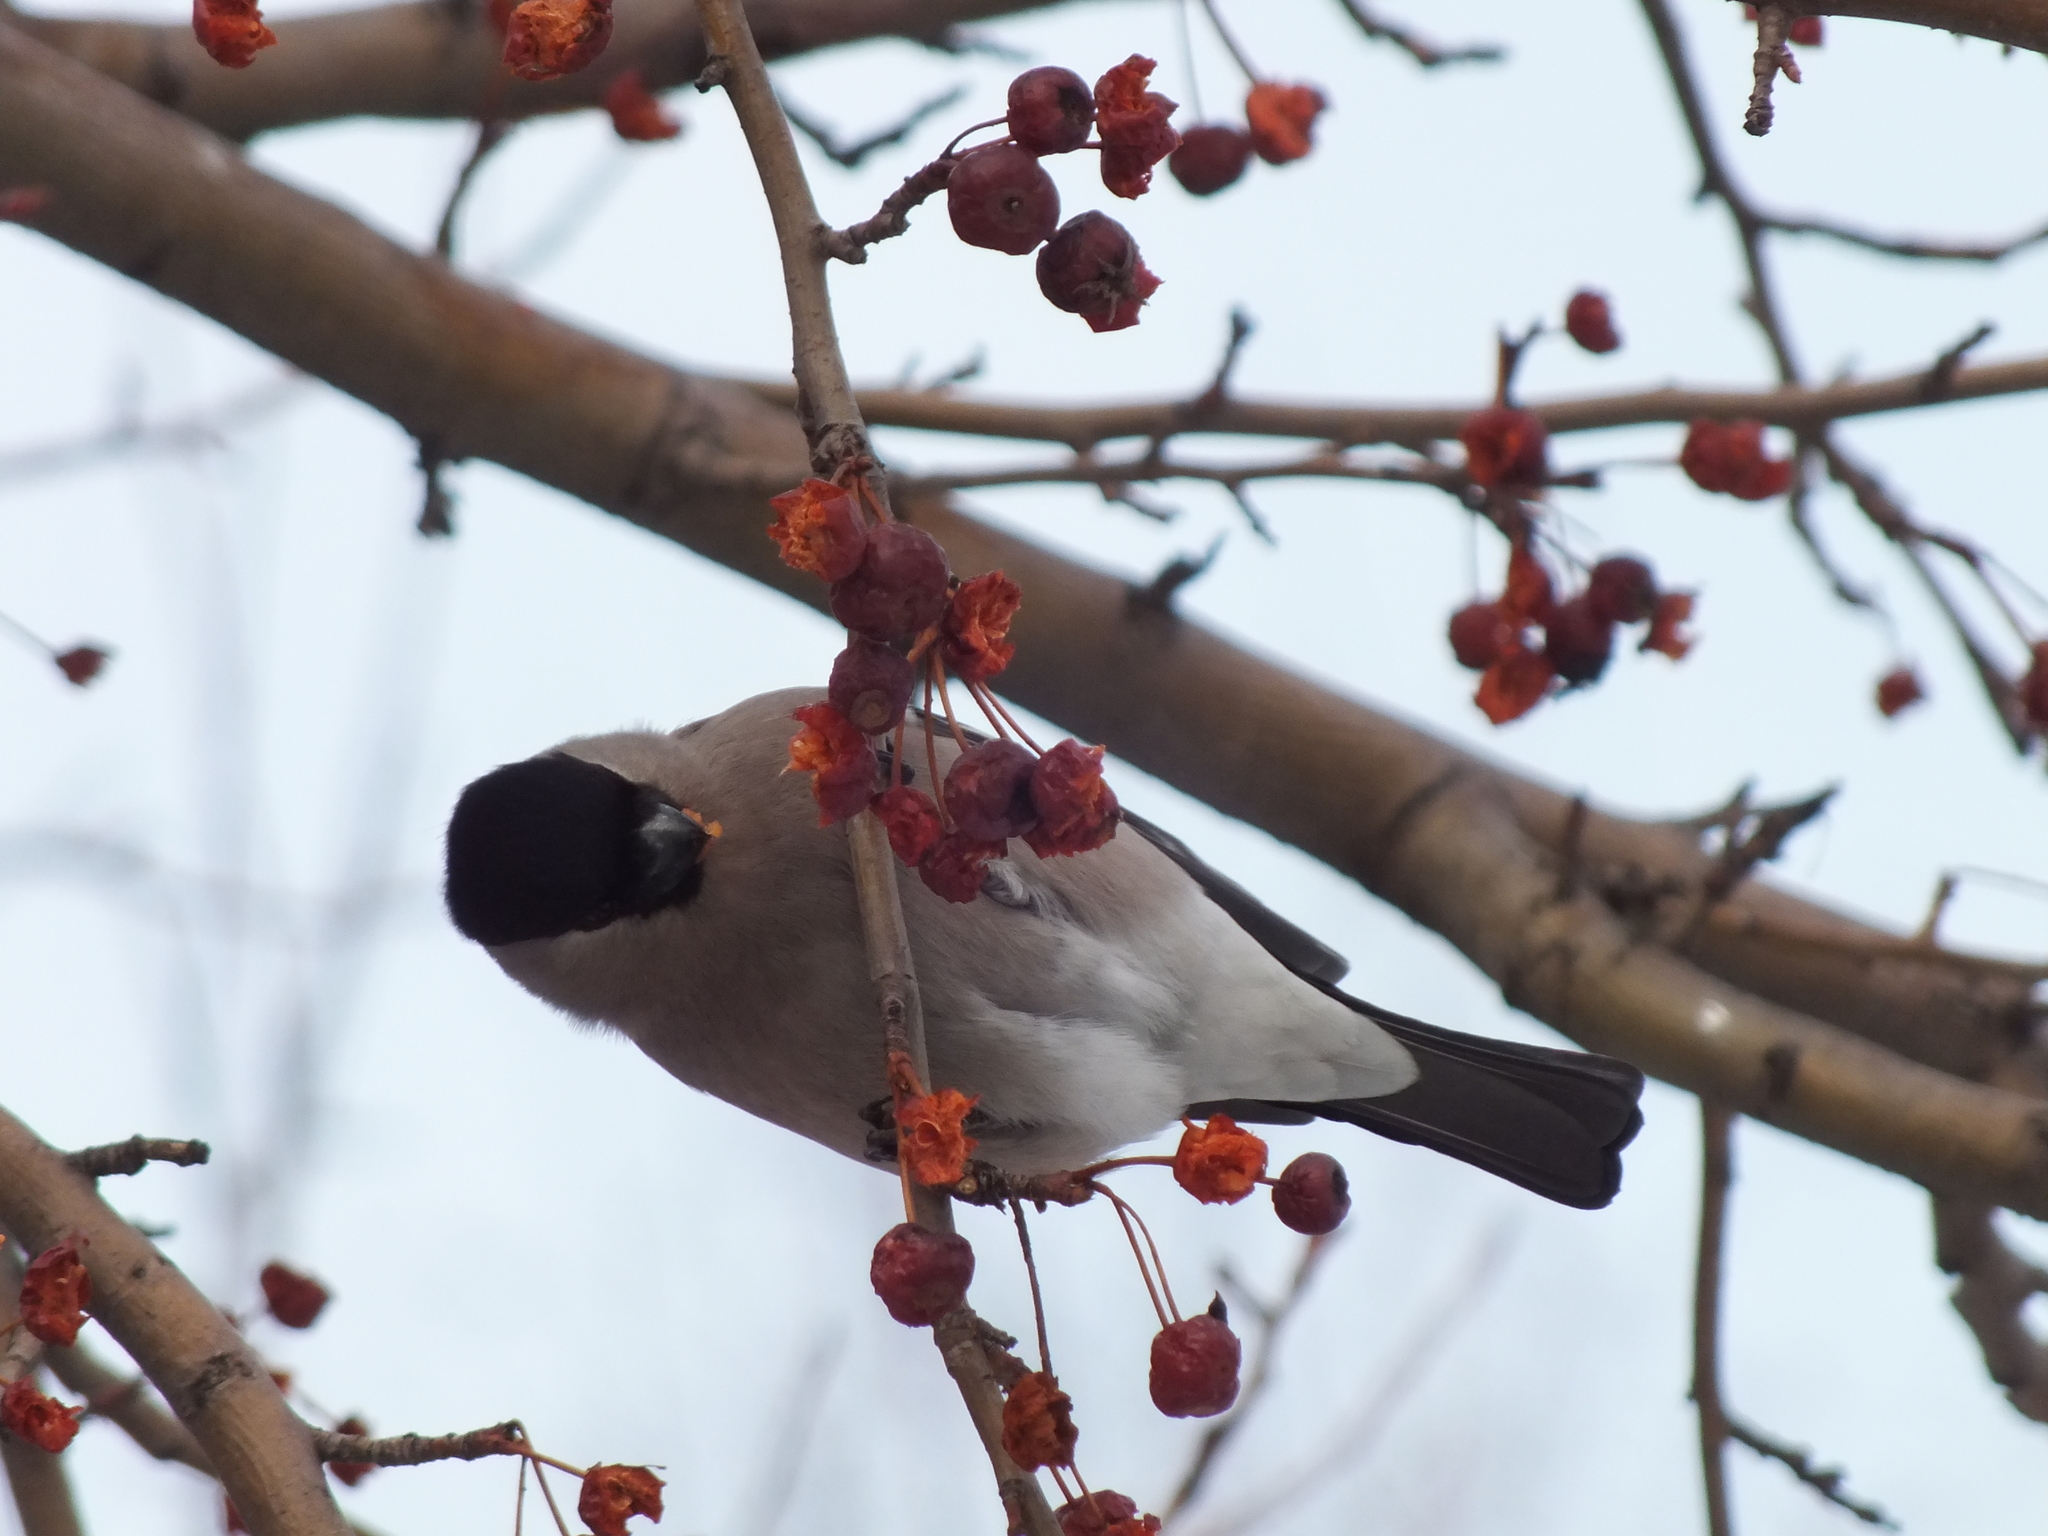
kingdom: Animalia
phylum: Chordata
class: Aves
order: Passeriformes
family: Fringillidae
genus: Pyrrhula
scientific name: Pyrrhula pyrrhula
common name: Eurasian bullfinch
